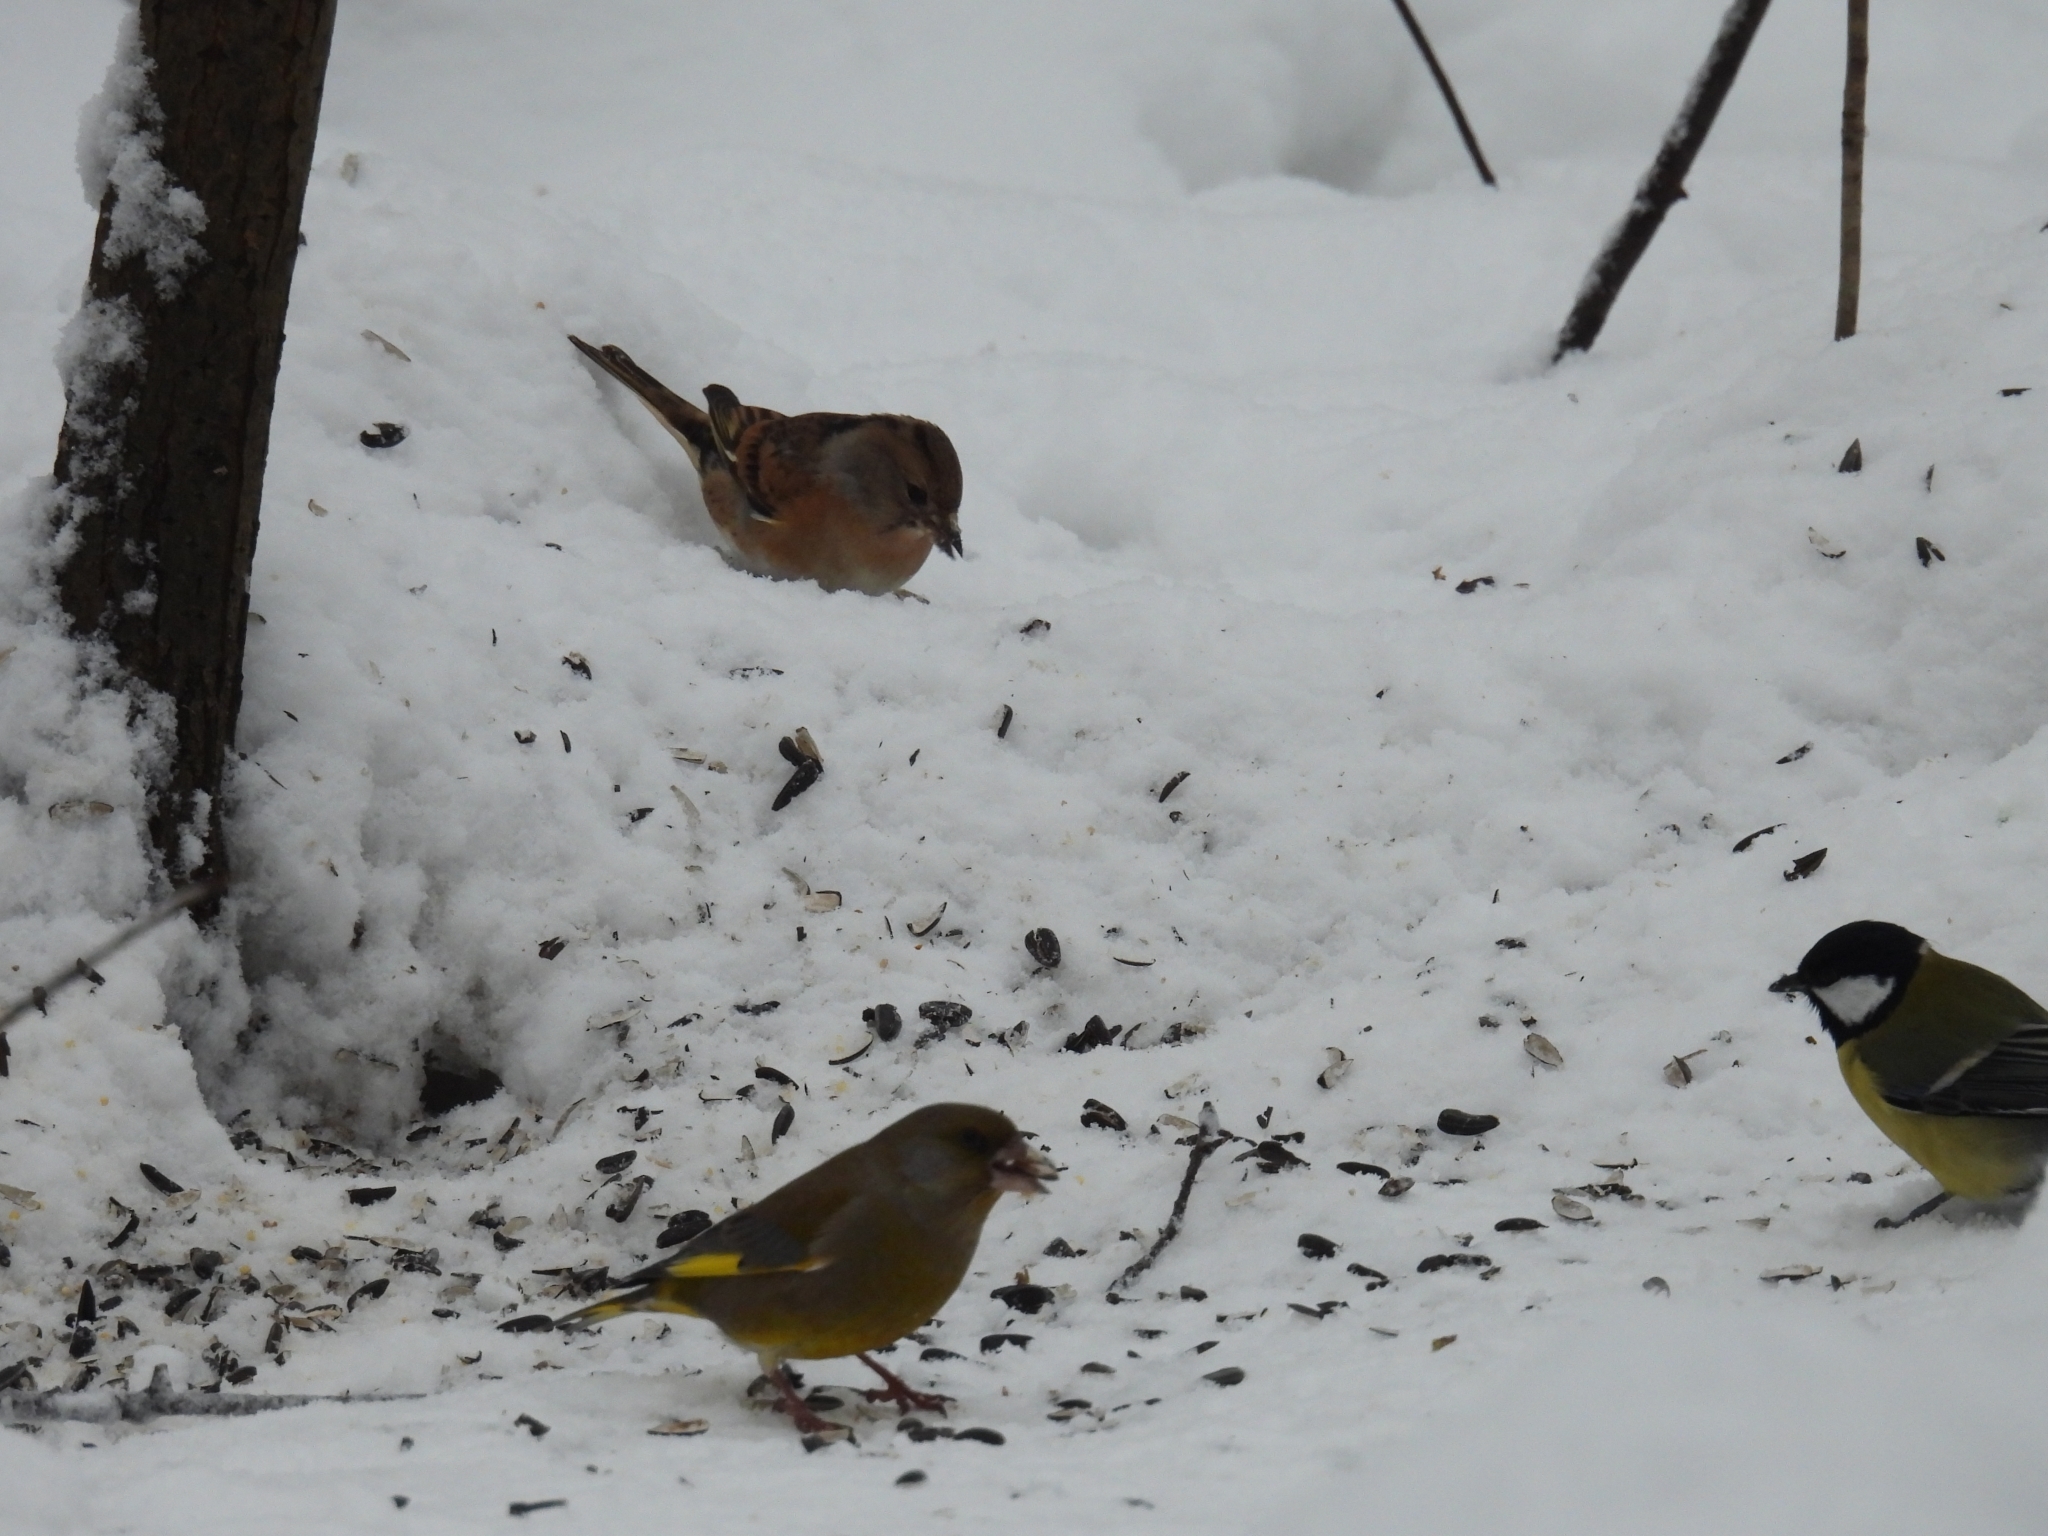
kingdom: Animalia
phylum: Chordata
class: Aves
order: Passeriformes
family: Fringillidae
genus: Fringilla
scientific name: Fringilla montifringilla
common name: Brambling
